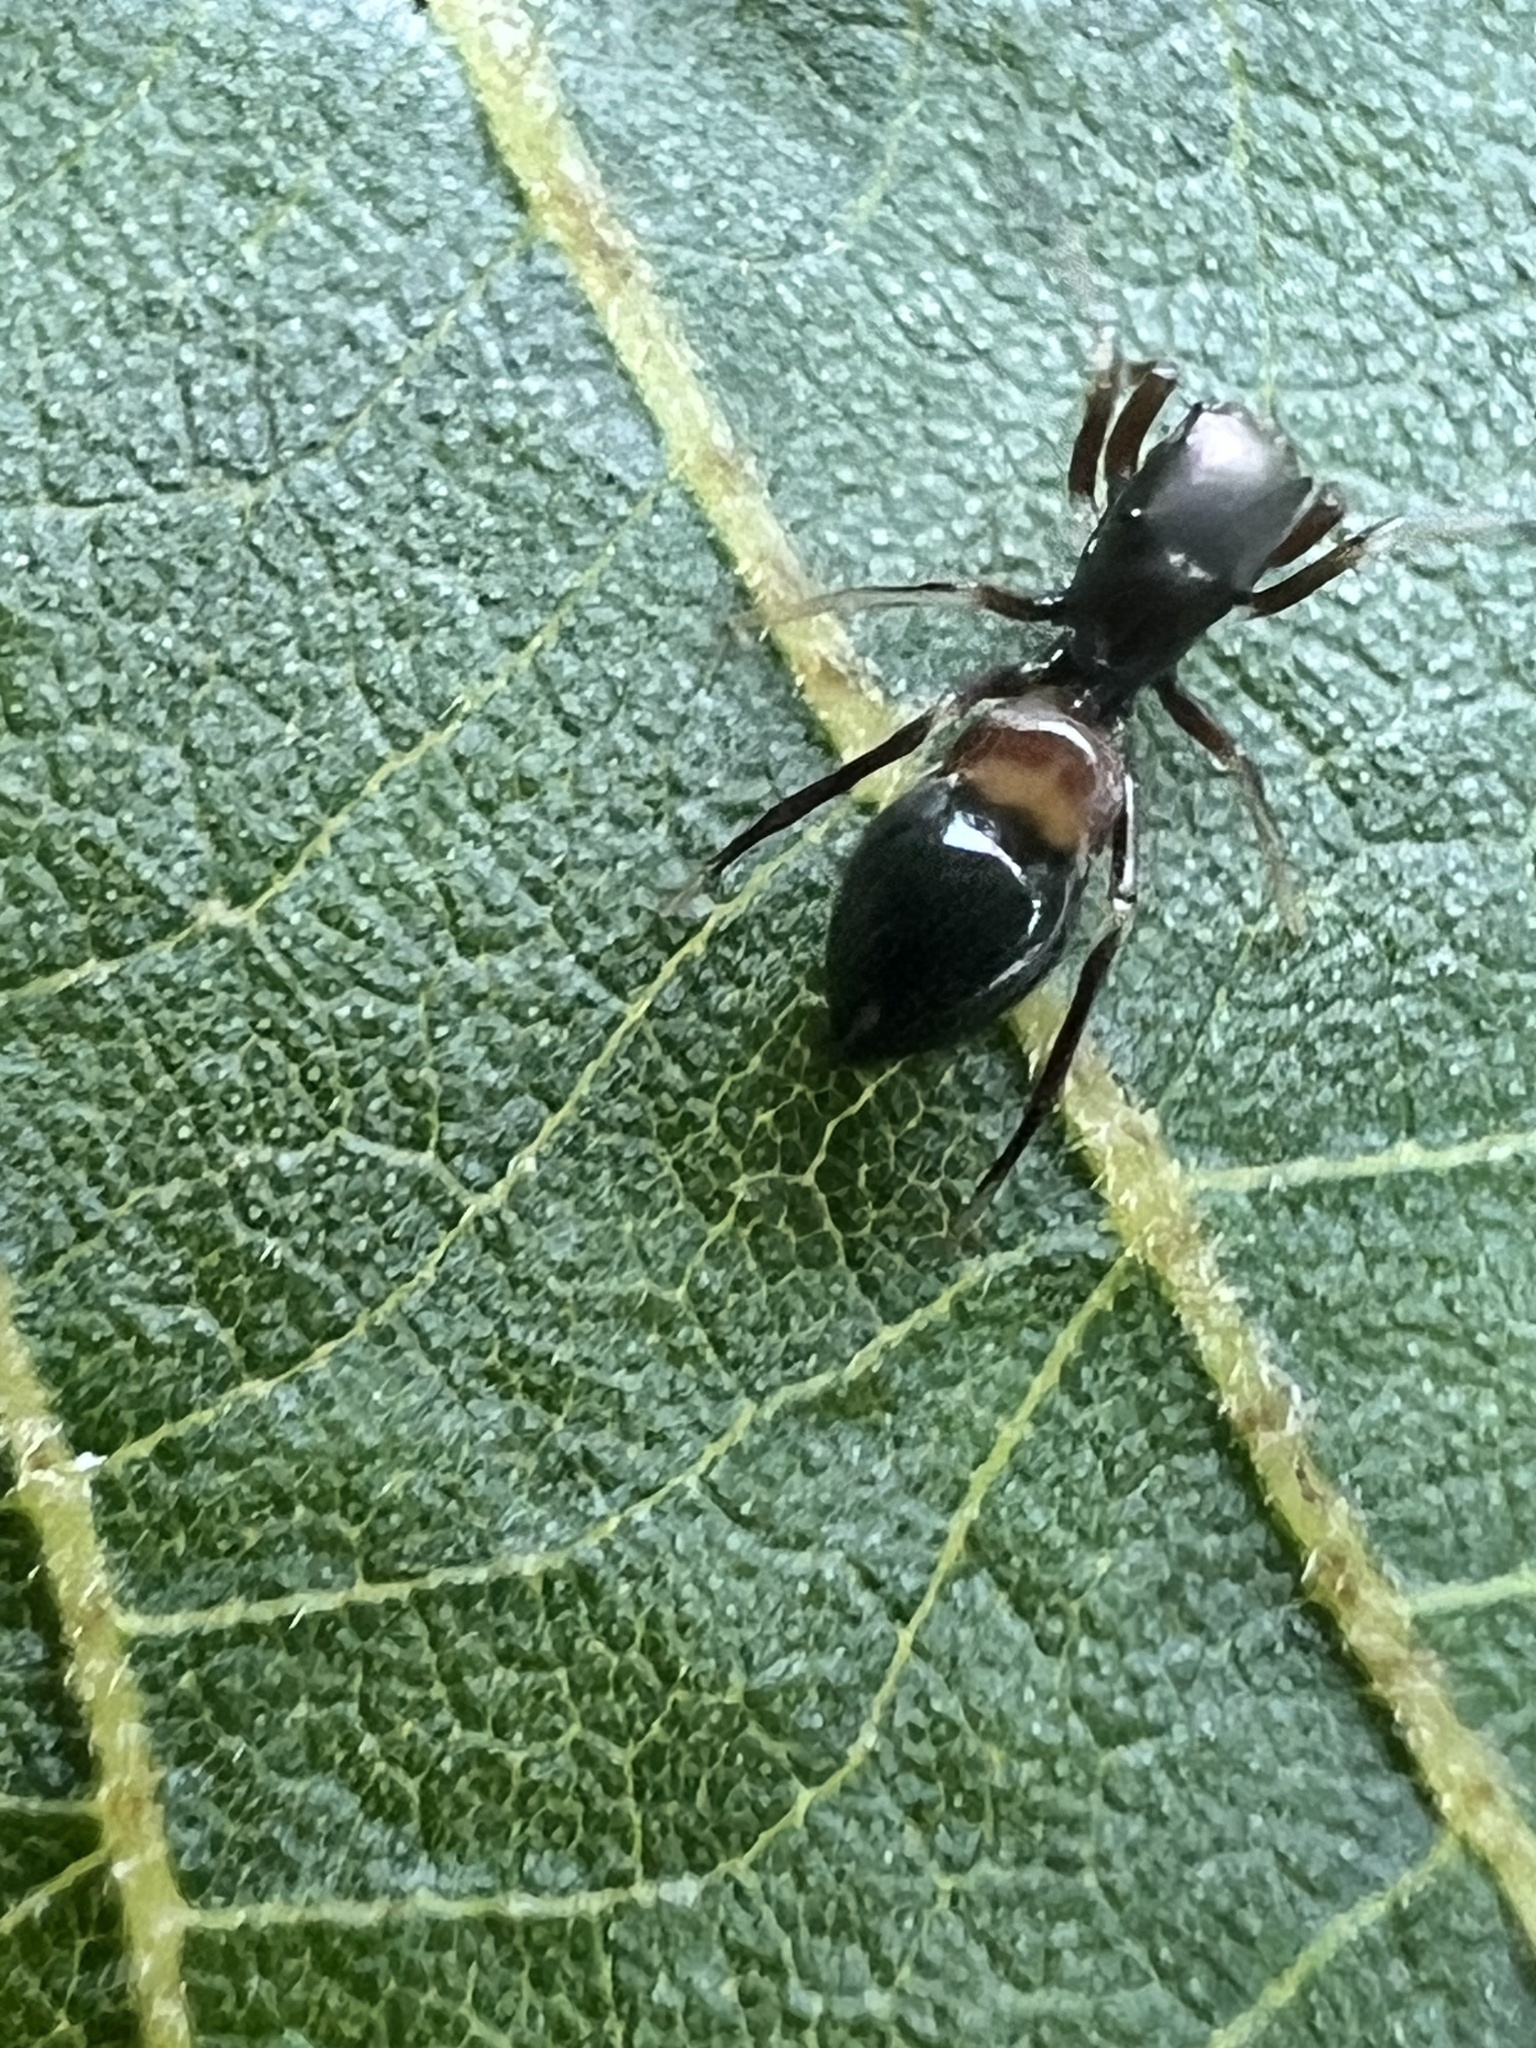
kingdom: Animalia
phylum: Arthropoda
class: Arachnida
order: Araneae
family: Salticidae
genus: Peckhamia
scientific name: Peckhamia americana
